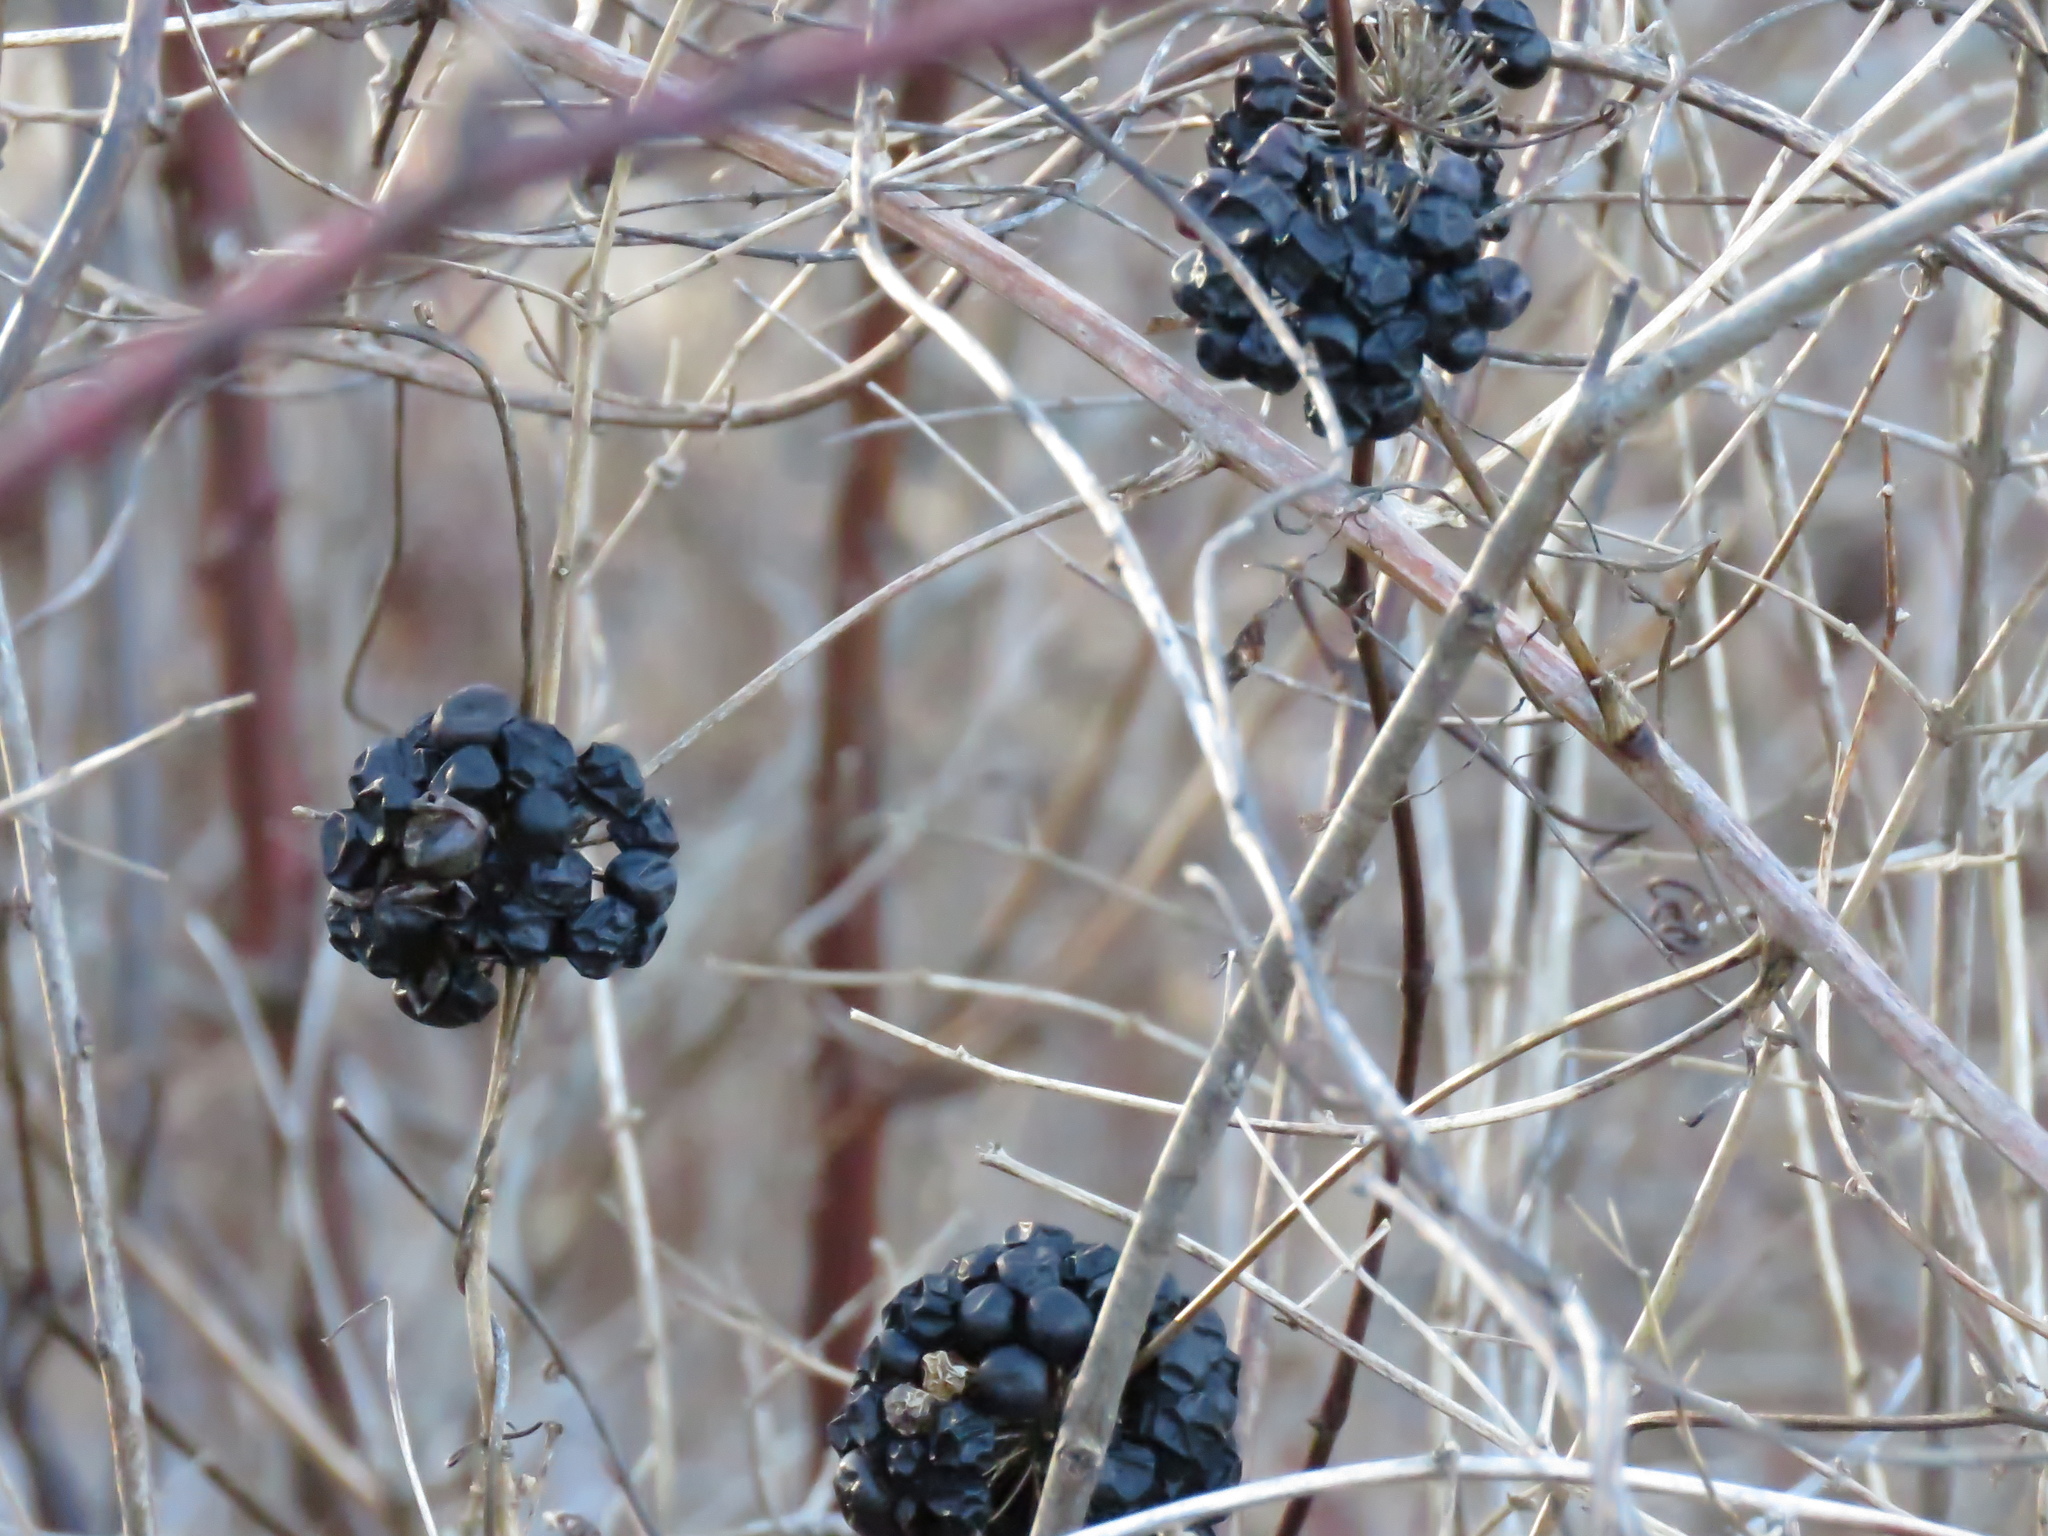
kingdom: Plantae
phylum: Tracheophyta
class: Liliopsida
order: Liliales
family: Smilacaceae
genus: Smilax
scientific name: Smilax lasioneura
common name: Blue ridge carrionflower
